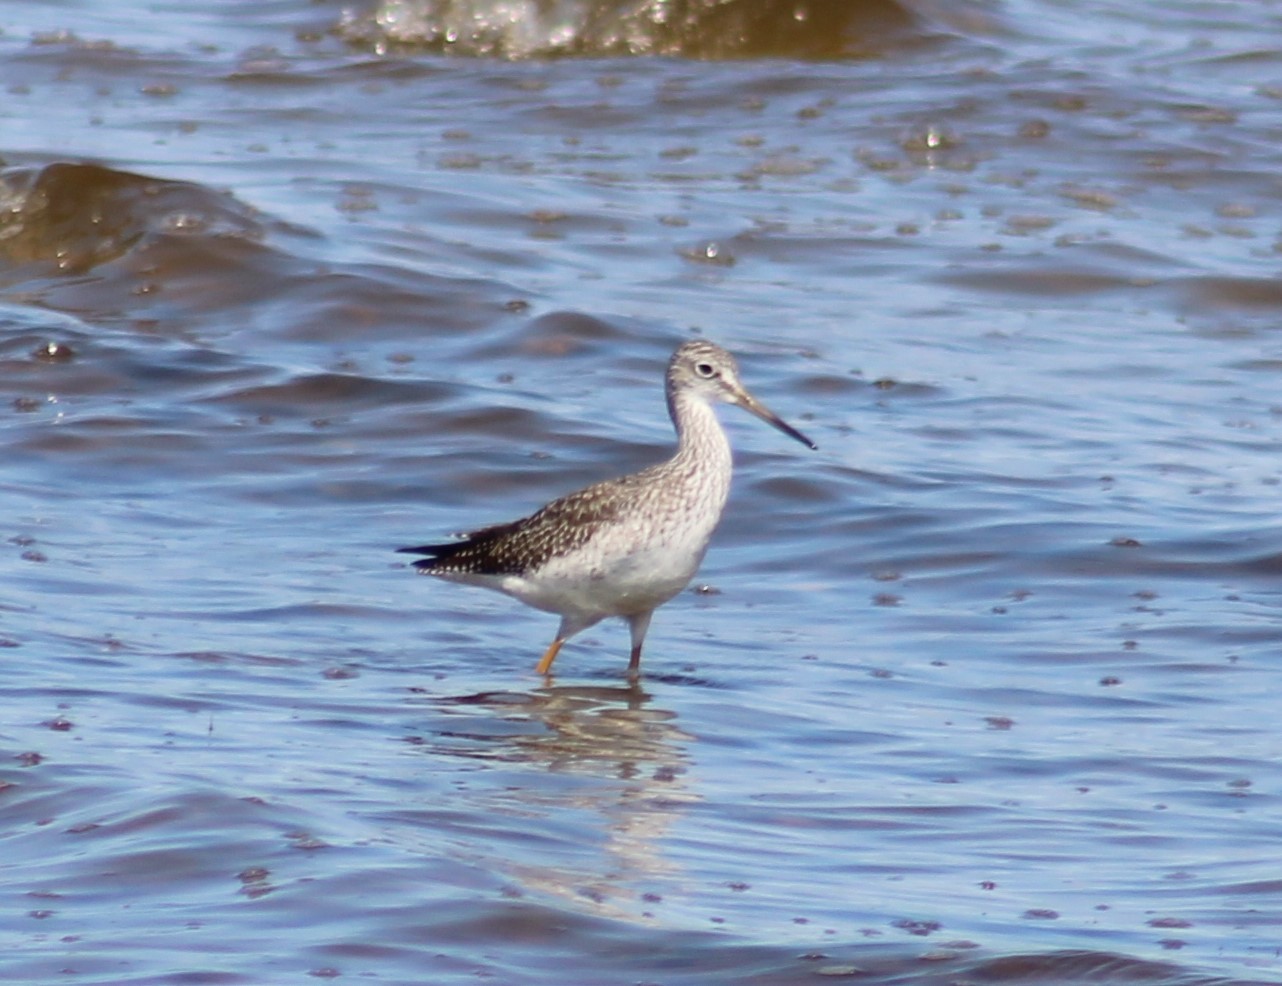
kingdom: Animalia
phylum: Chordata
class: Aves
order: Charadriiformes
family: Scolopacidae
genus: Tringa
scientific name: Tringa melanoleuca
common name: Greater yellowlegs
